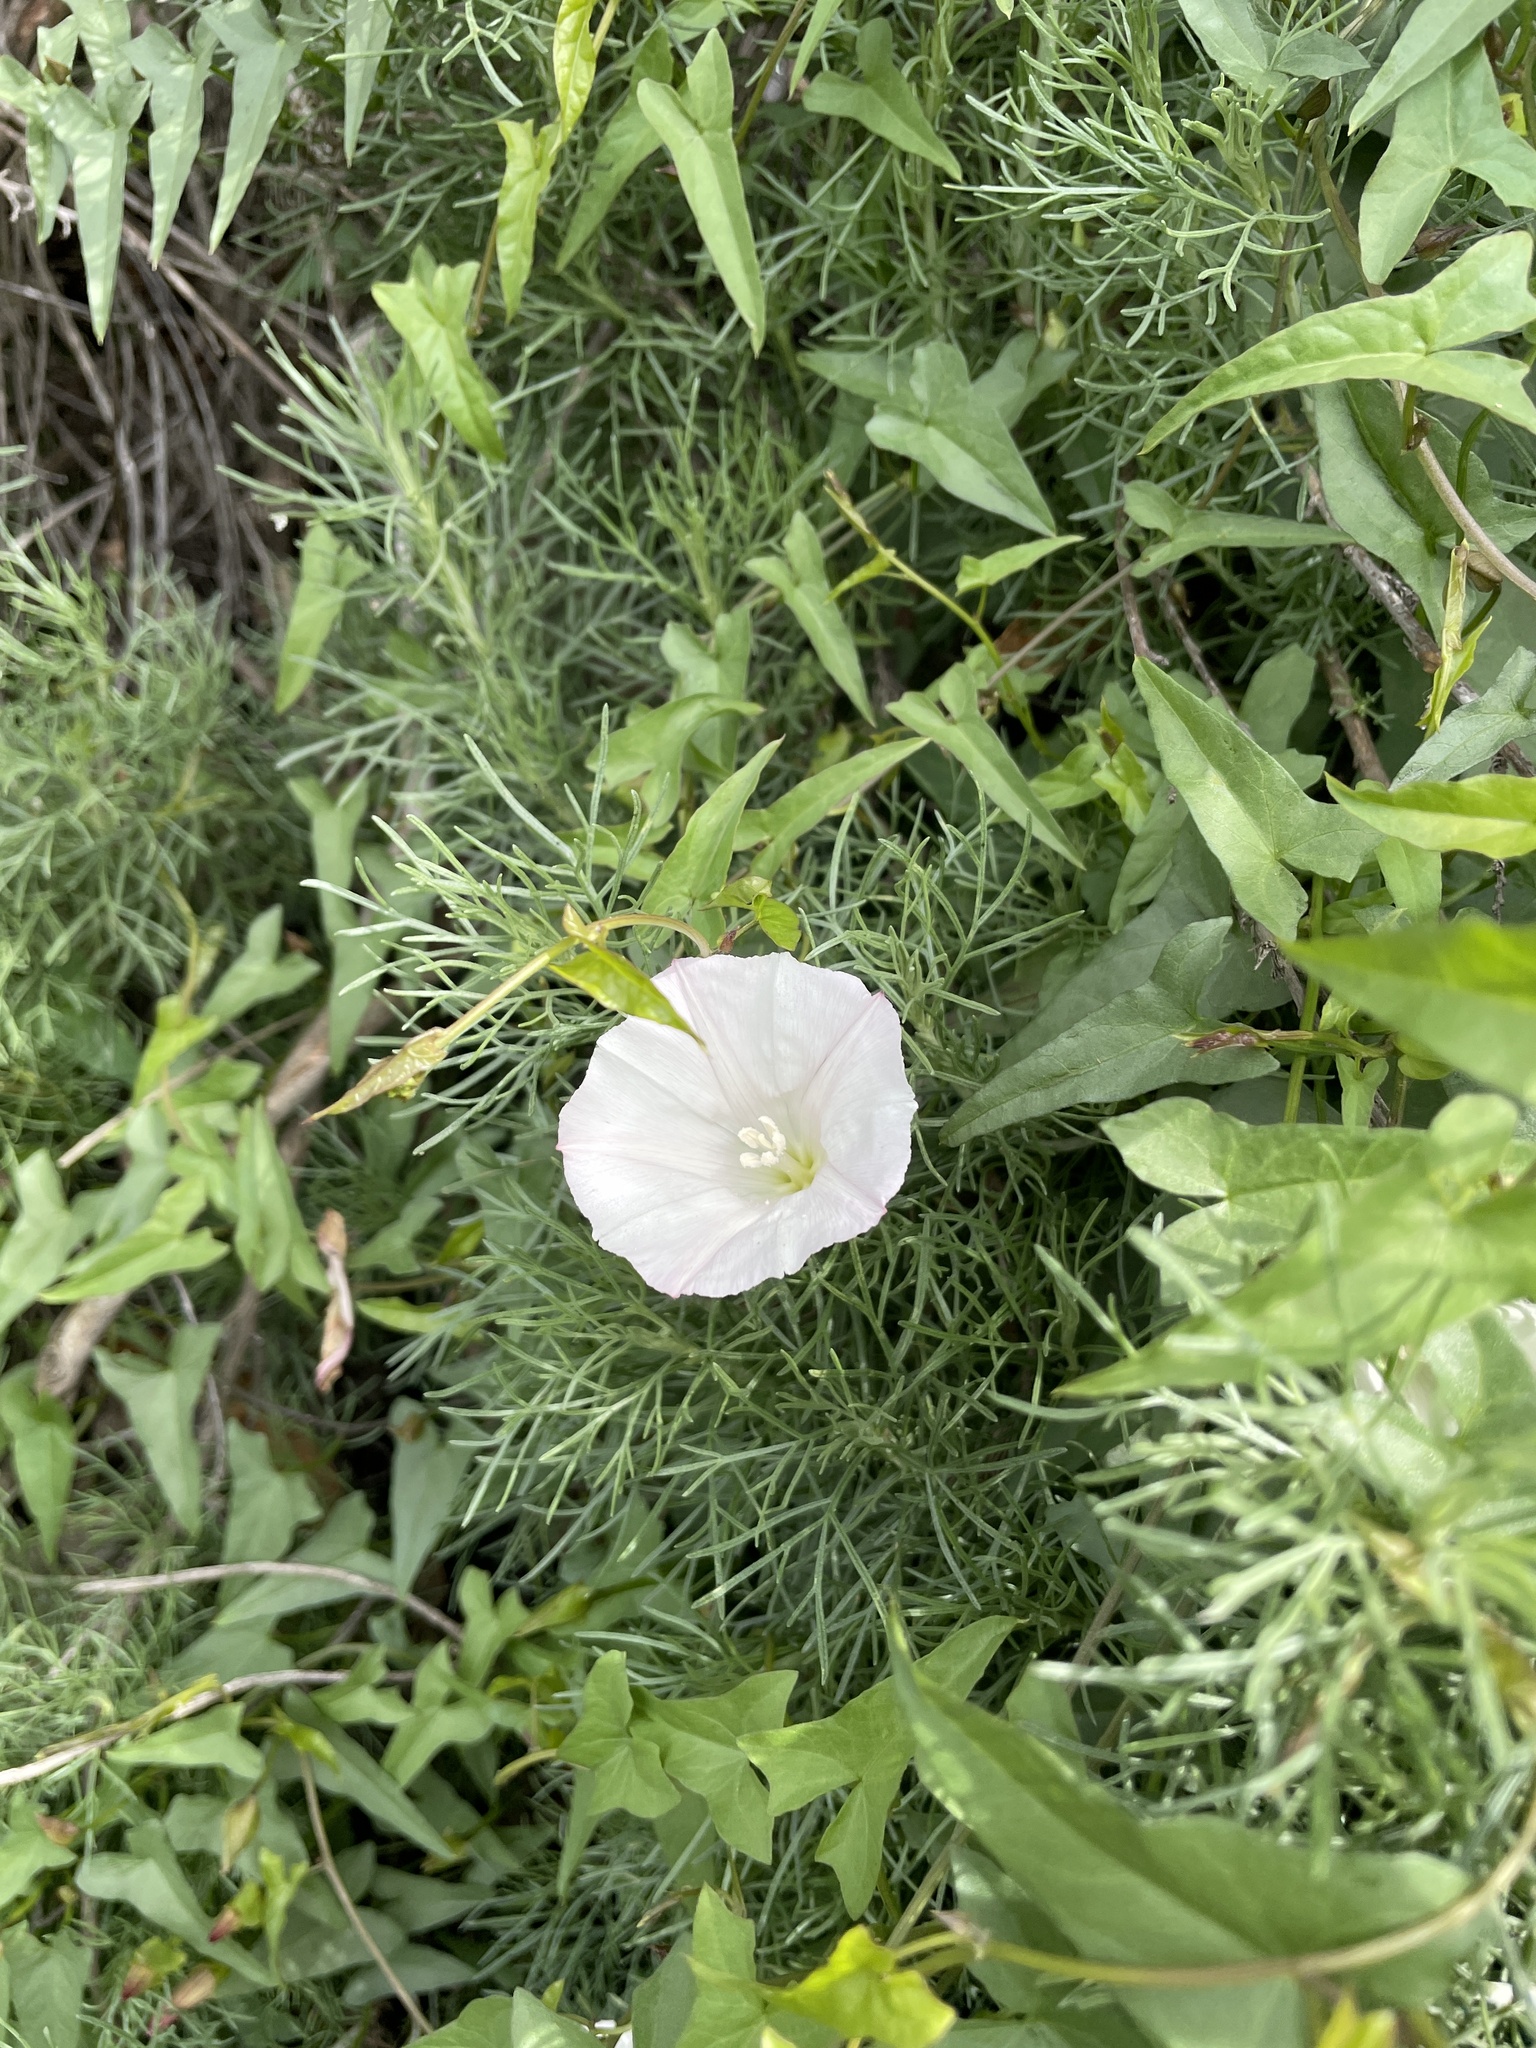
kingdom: Plantae
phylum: Tracheophyta
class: Magnoliopsida
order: Solanales
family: Convolvulaceae
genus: Calystegia
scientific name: Calystegia macrostegia
